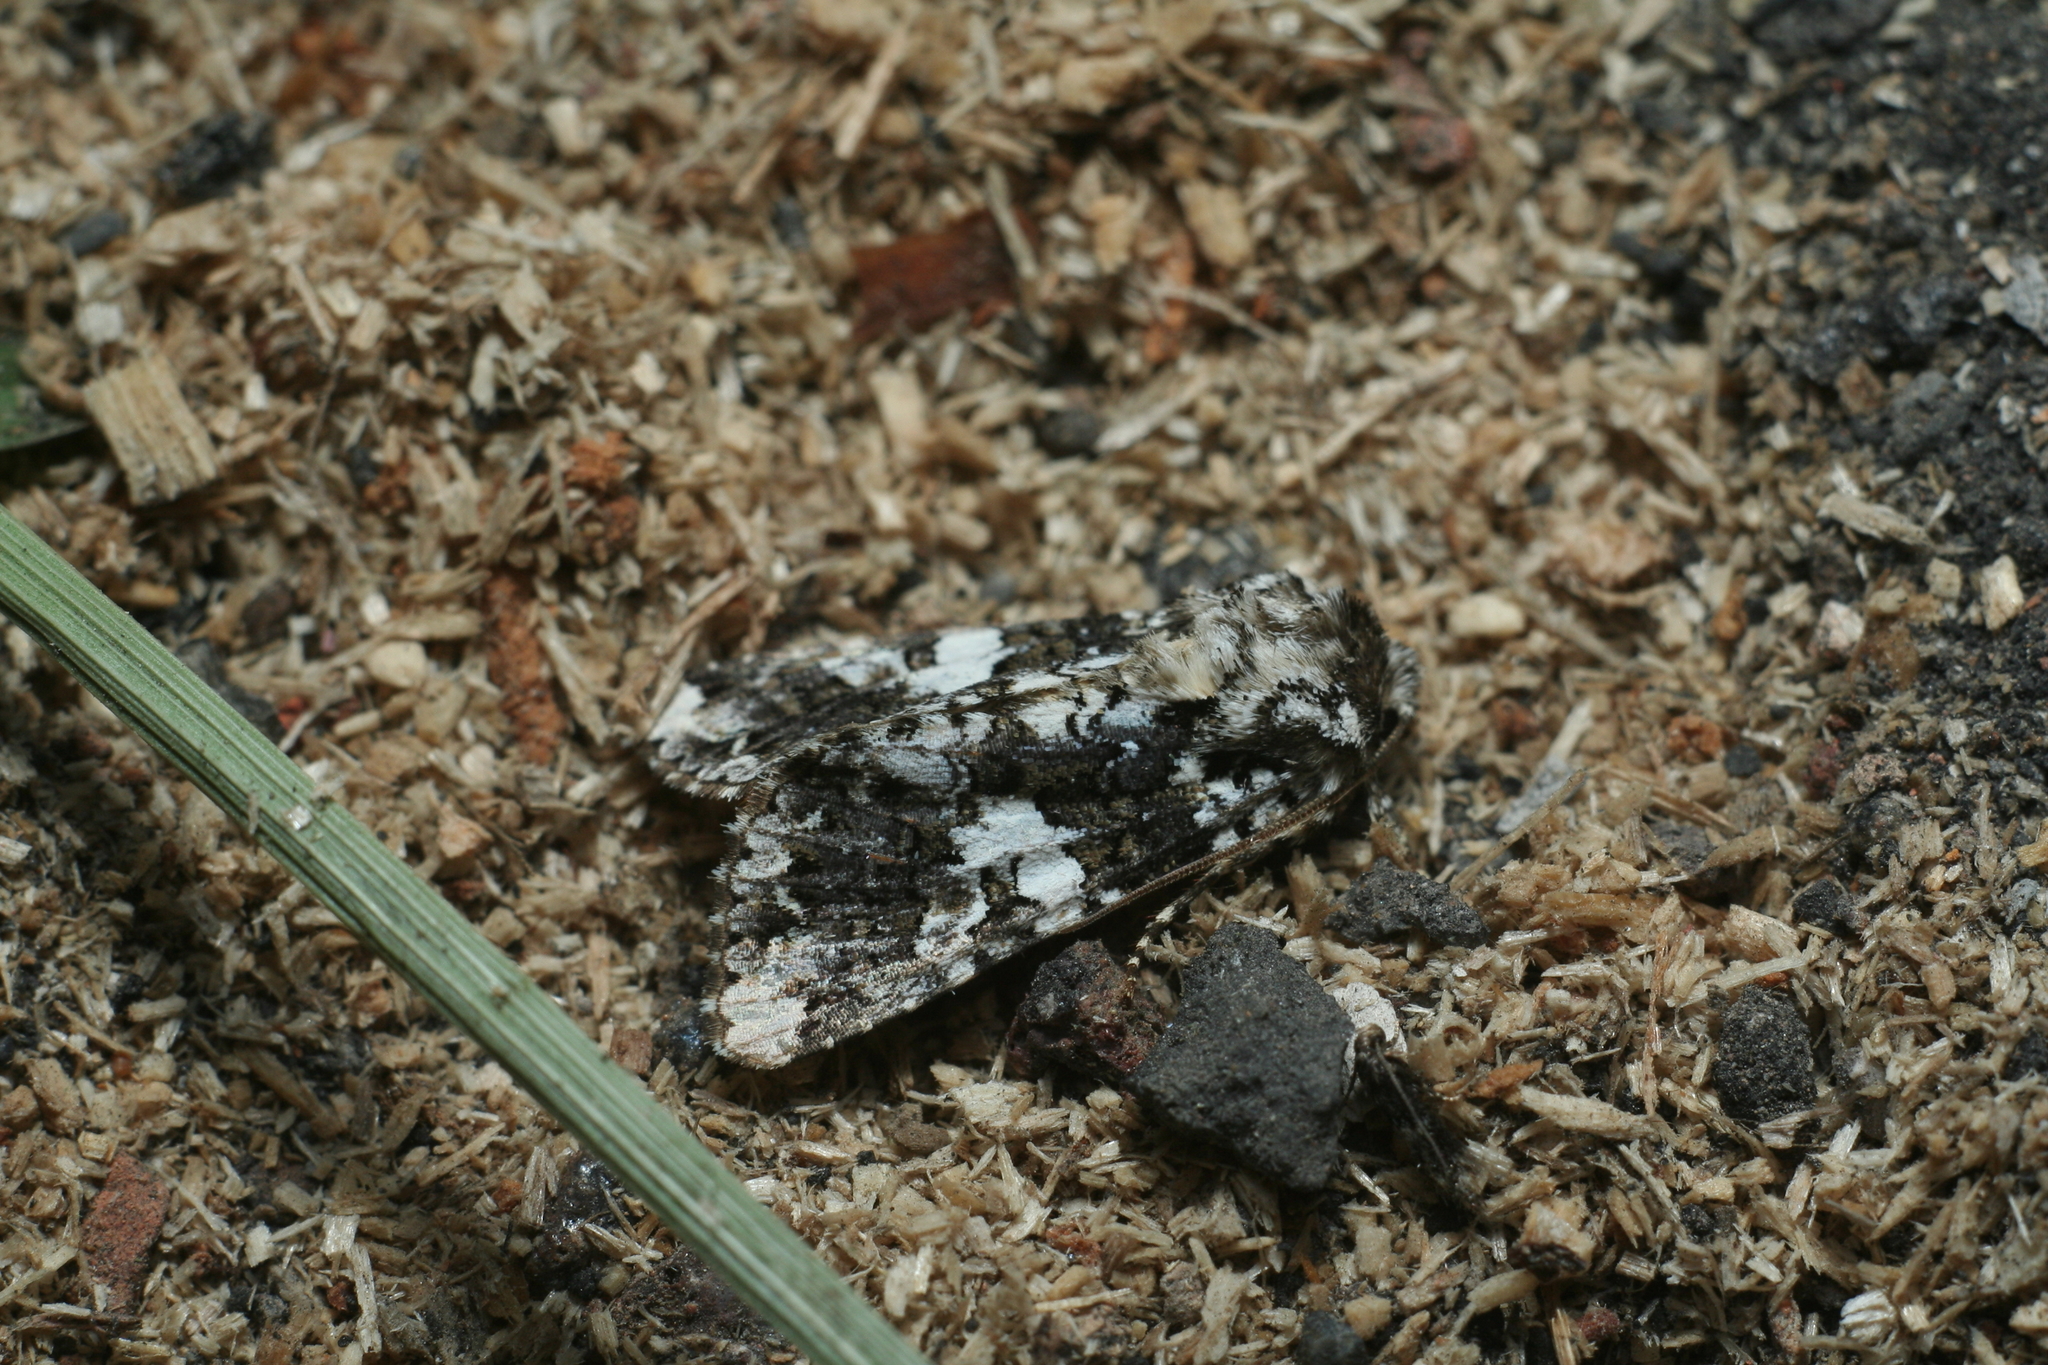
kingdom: Animalia
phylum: Arthropoda
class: Insecta
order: Lepidoptera
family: Noctuidae
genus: Hadena
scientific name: Hadena variolata
